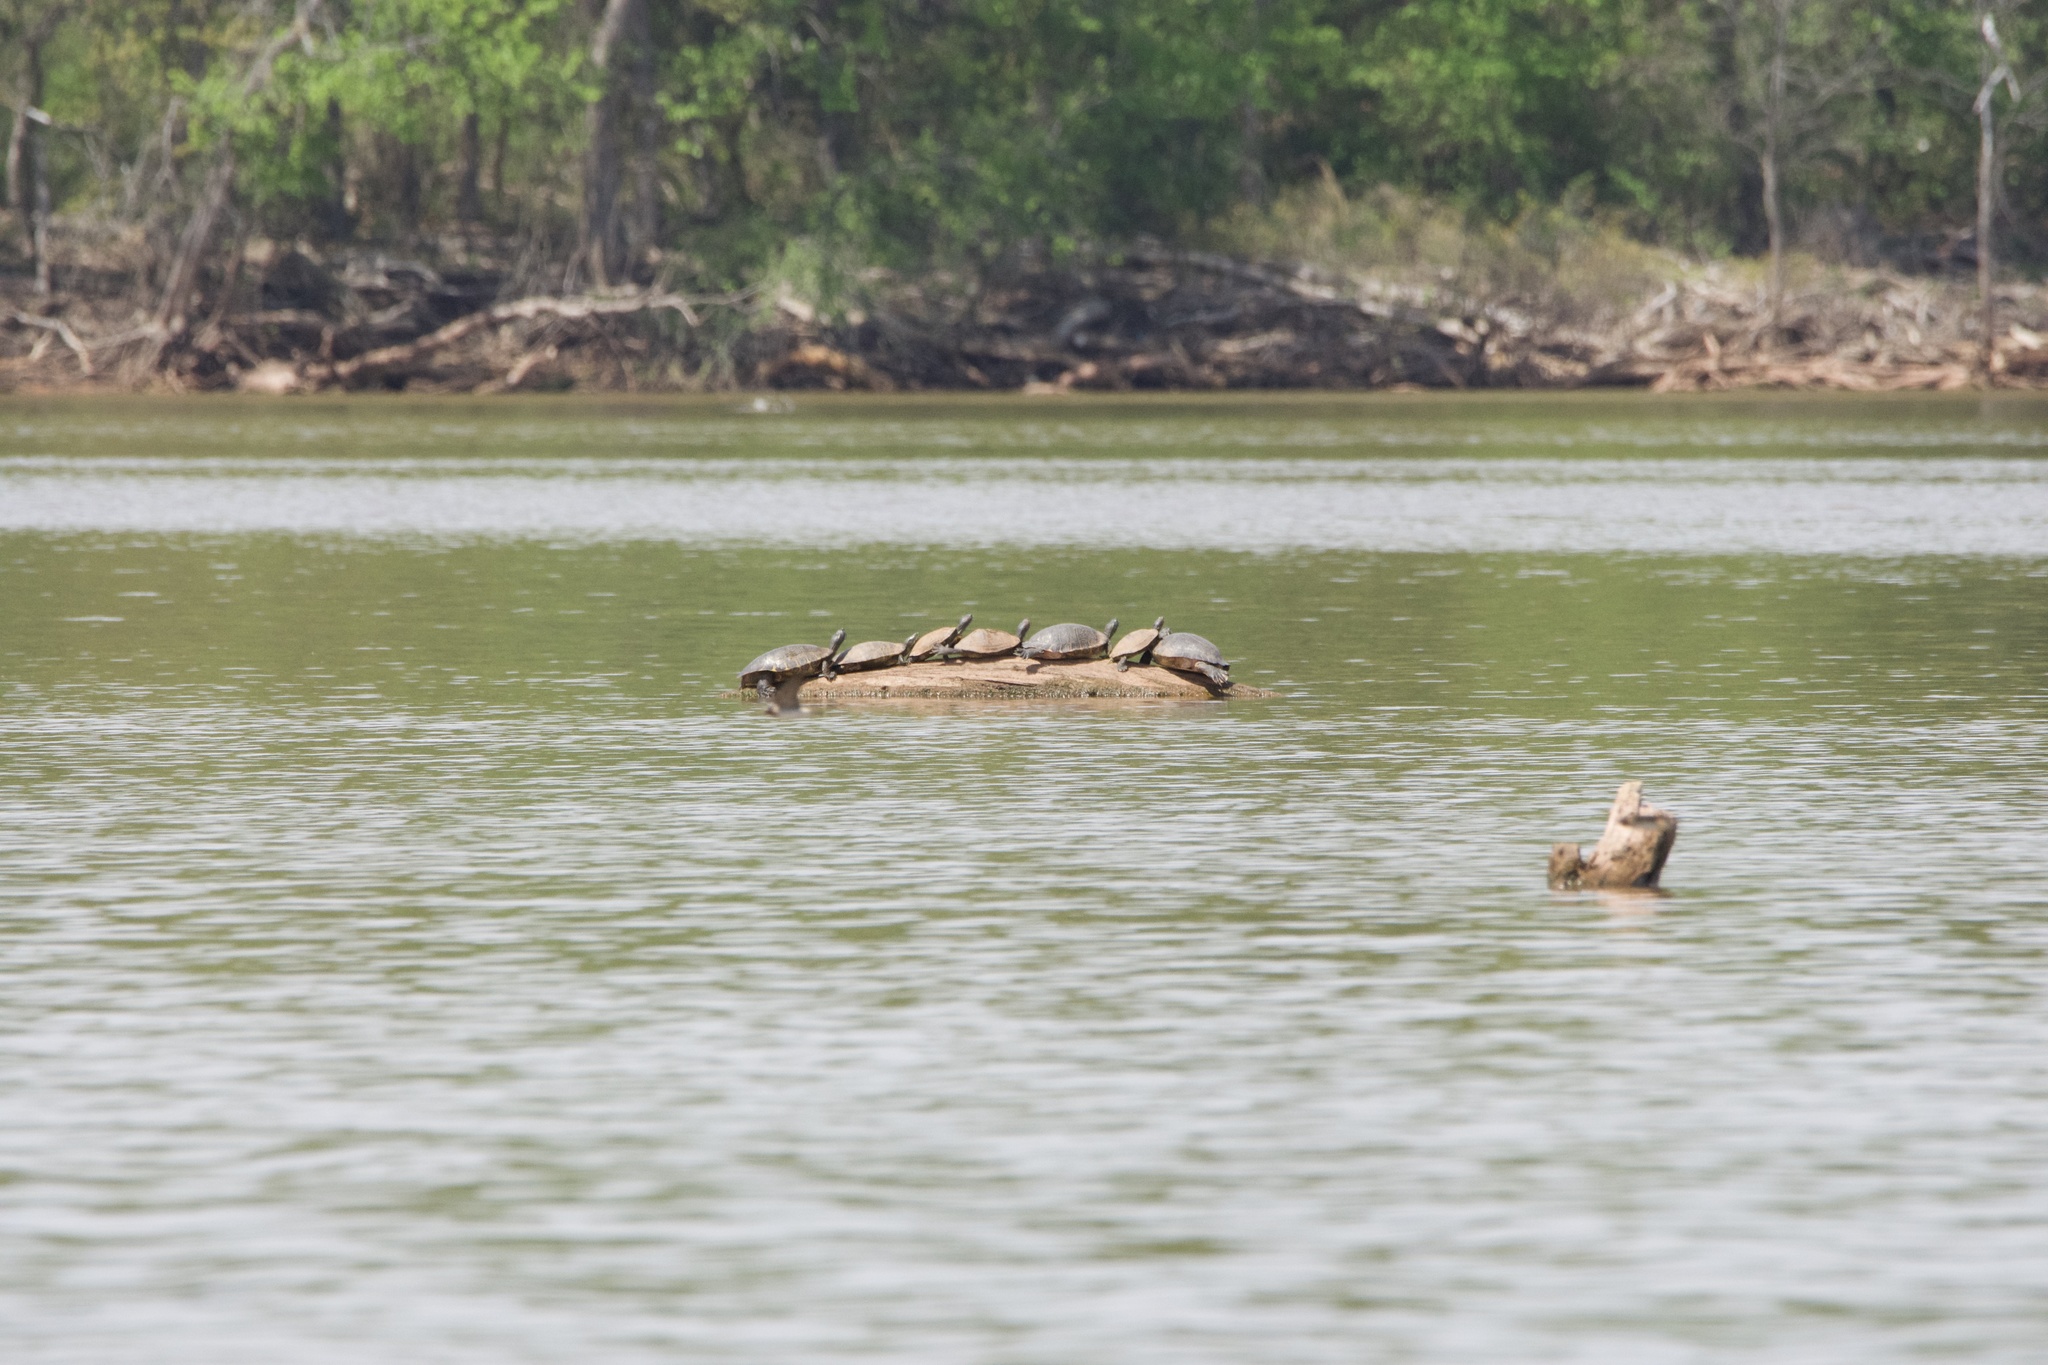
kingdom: Animalia
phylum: Chordata
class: Testudines
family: Emydidae
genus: Trachemys
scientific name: Trachemys scripta
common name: Slider
